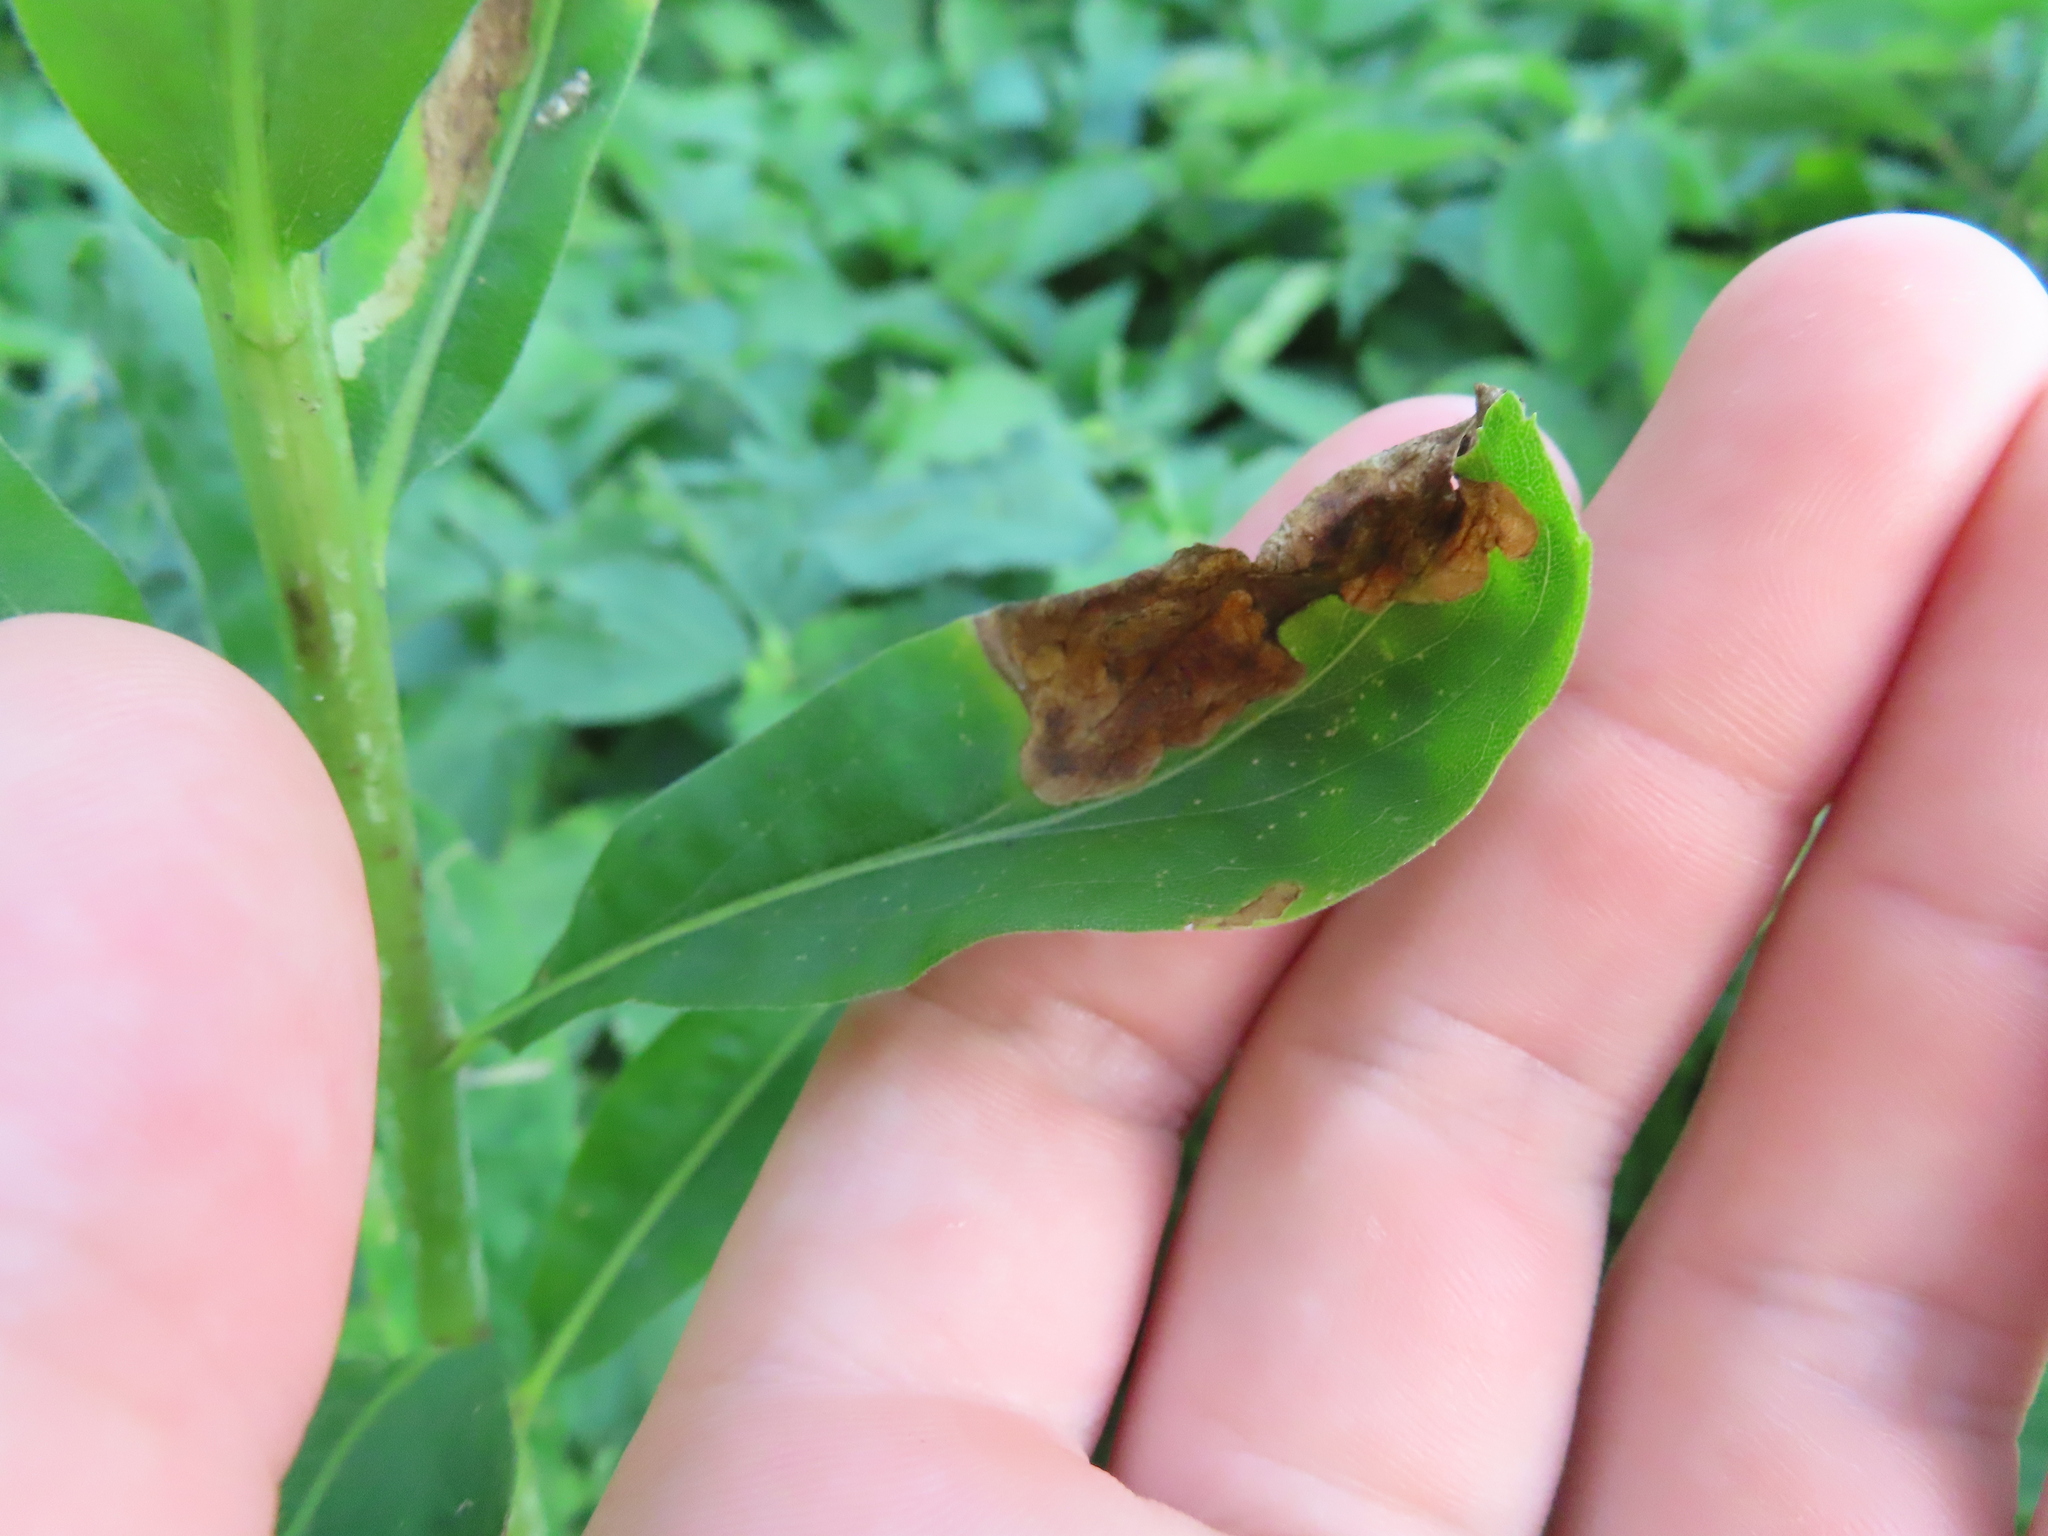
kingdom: Animalia
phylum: Arthropoda
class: Insecta
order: Diptera
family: Agromyzidae
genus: Nemorimyza
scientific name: Nemorimyza posticata
